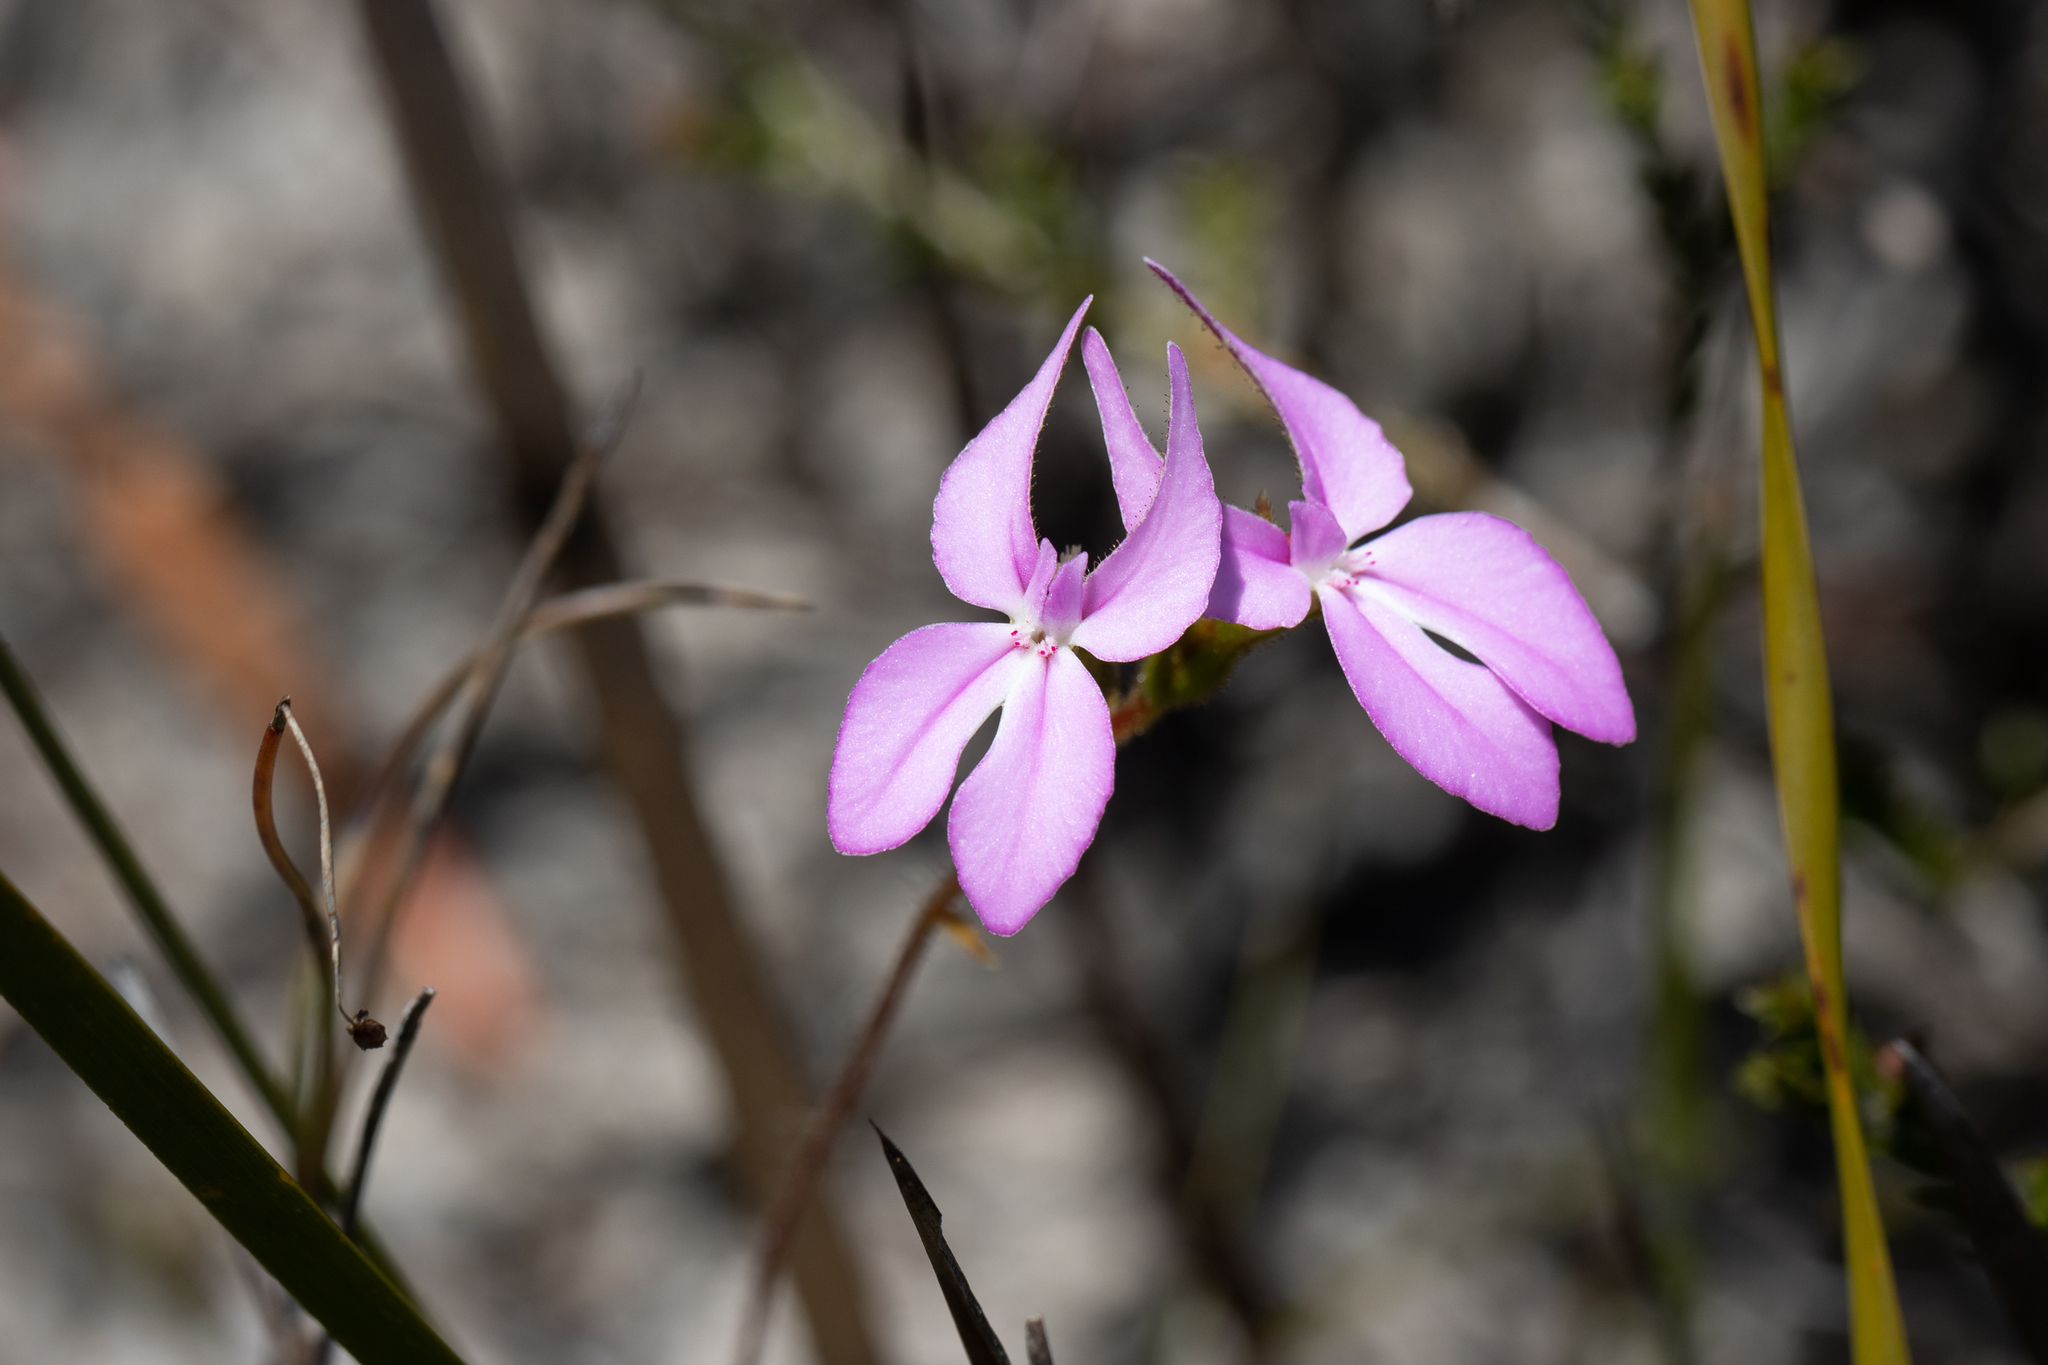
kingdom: Plantae
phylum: Tracheophyta
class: Magnoliopsida
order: Asterales
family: Stylidiaceae
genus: Stylidium
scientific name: Stylidium macranthum
